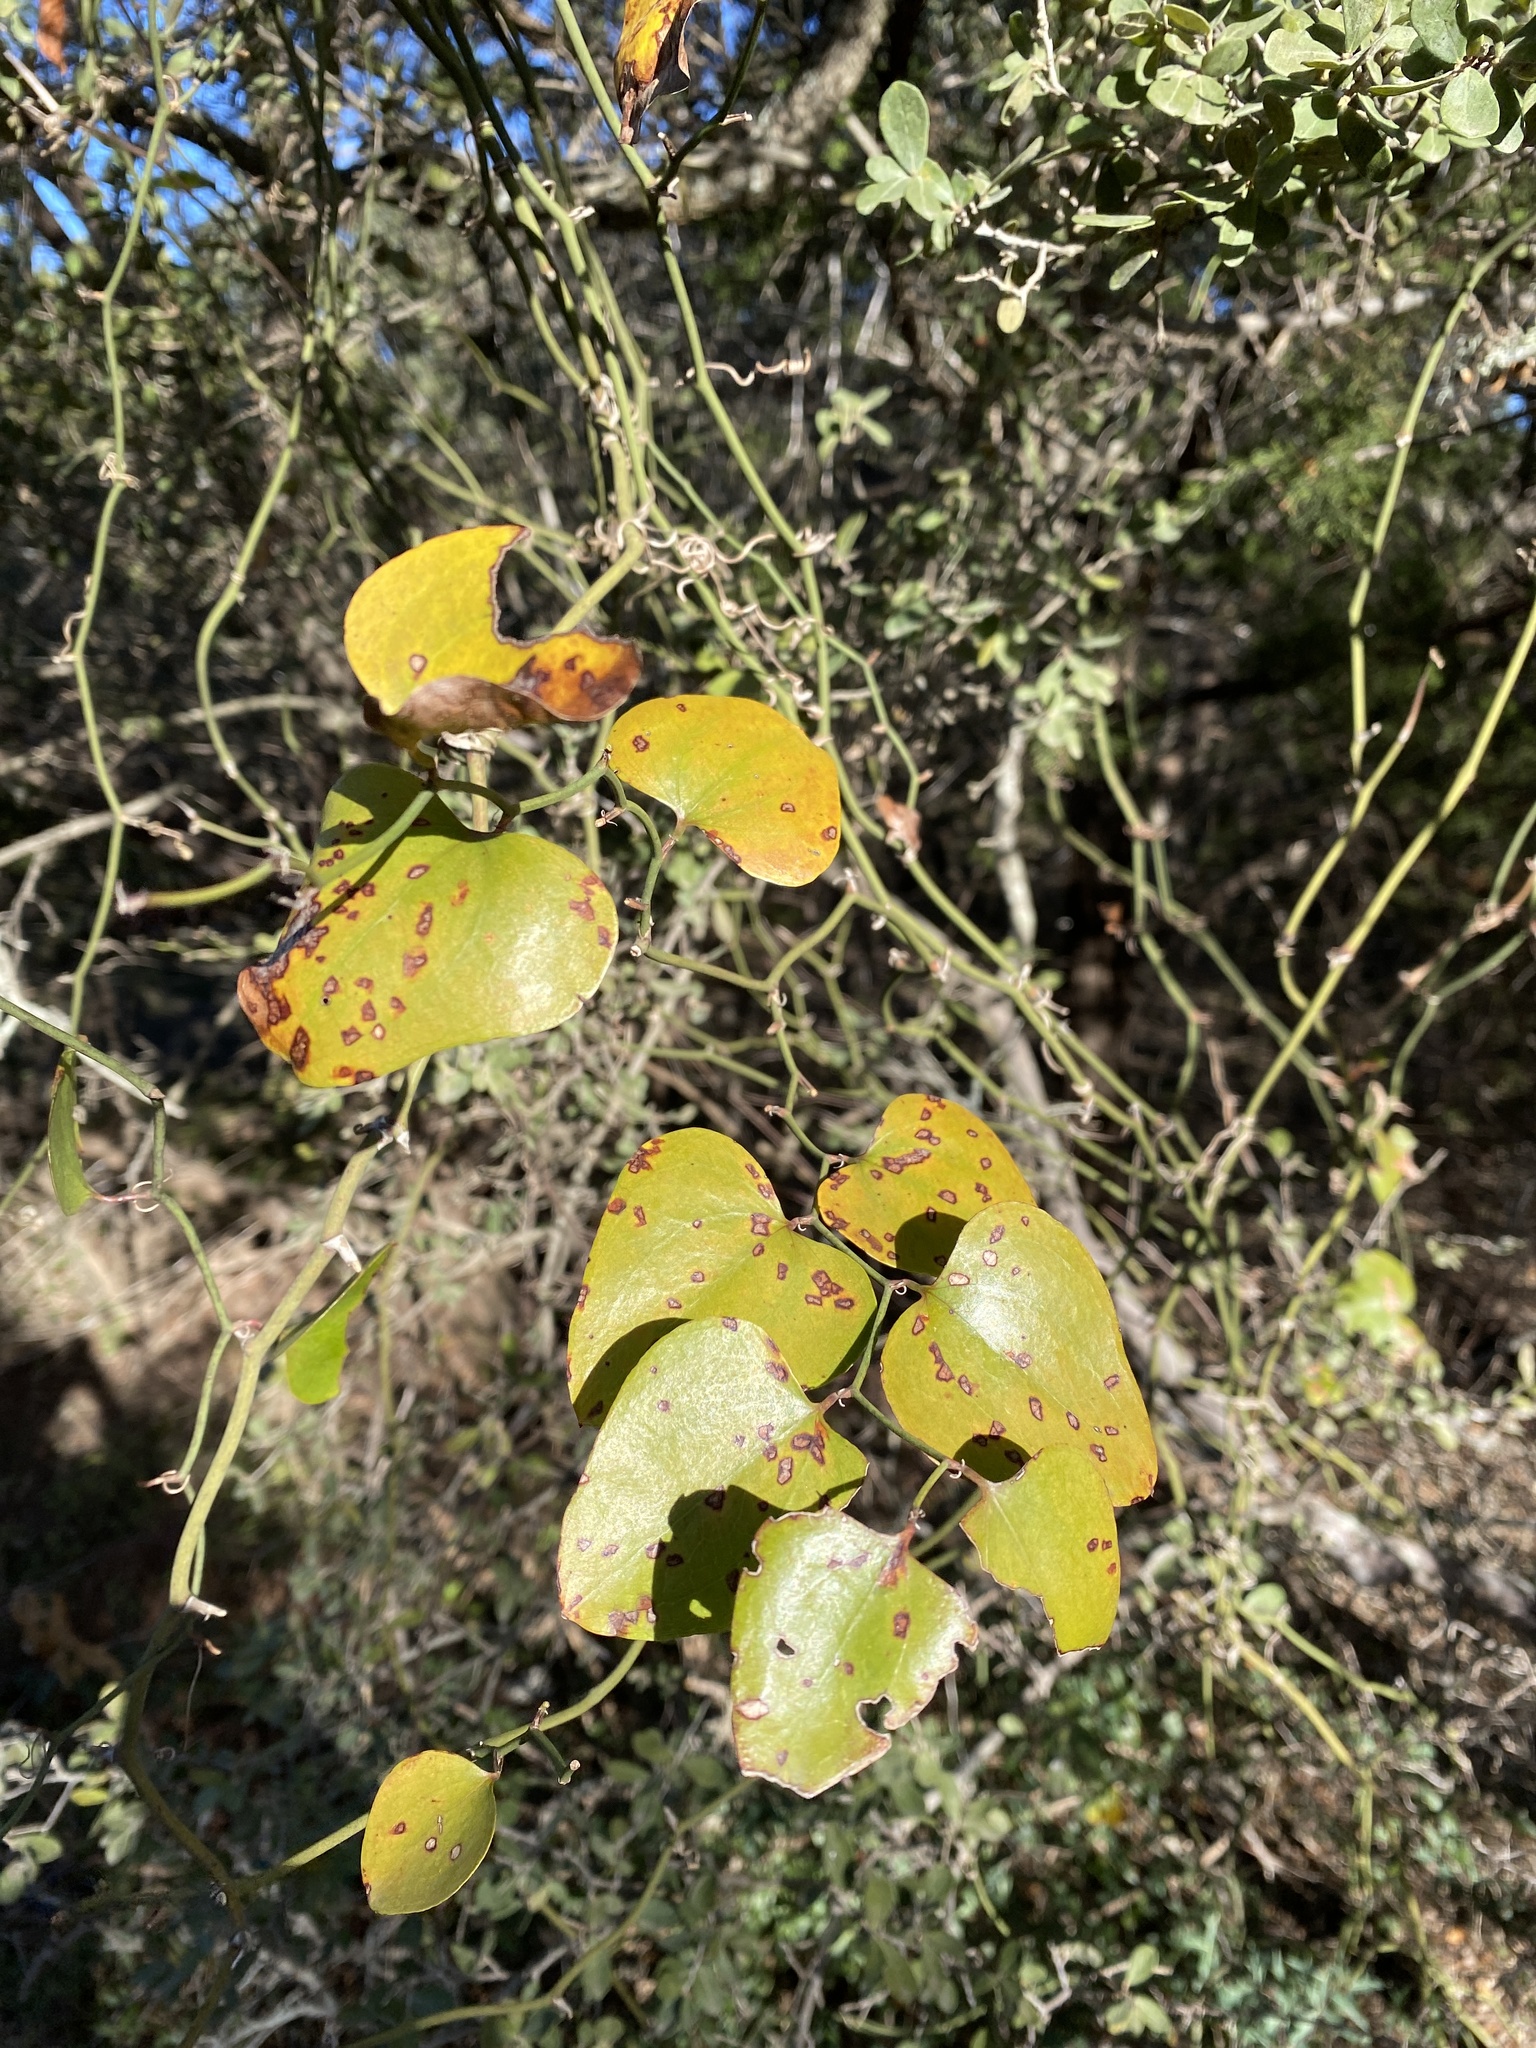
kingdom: Plantae
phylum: Tracheophyta
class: Liliopsida
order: Liliales
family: Smilacaceae
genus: Smilax
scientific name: Smilax bona-nox
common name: Catbrier
